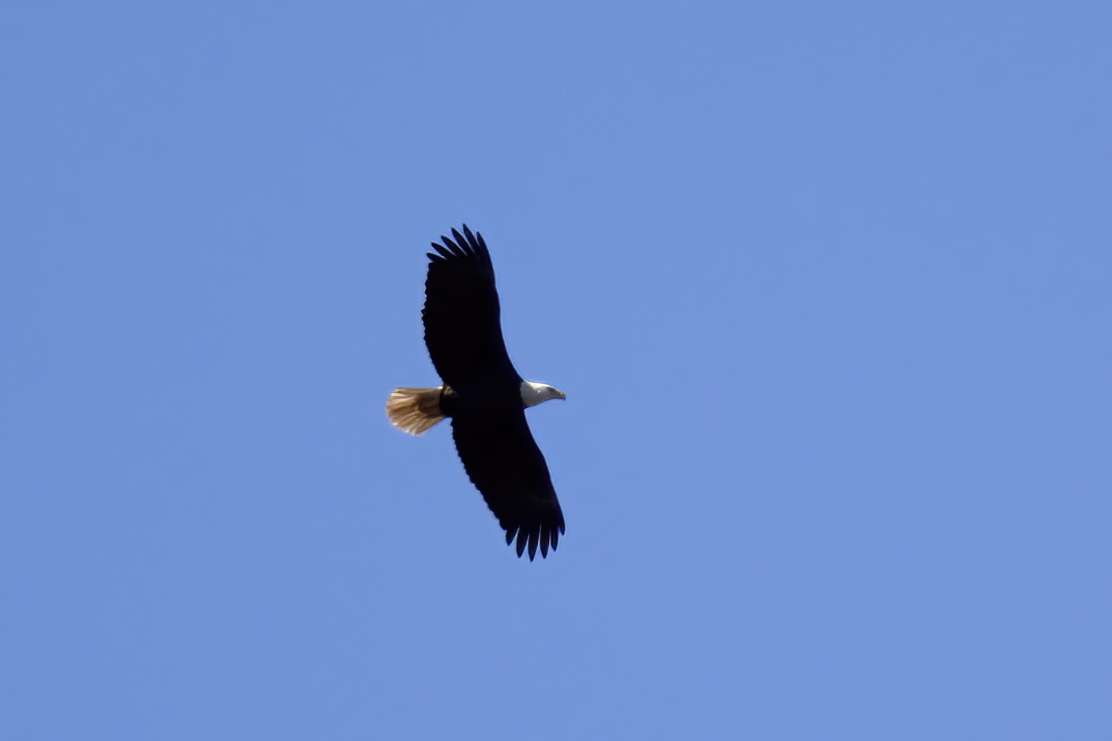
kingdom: Animalia
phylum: Chordata
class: Aves
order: Accipitriformes
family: Accipitridae
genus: Haliaeetus
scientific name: Haliaeetus leucocephalus
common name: Bald eagle
